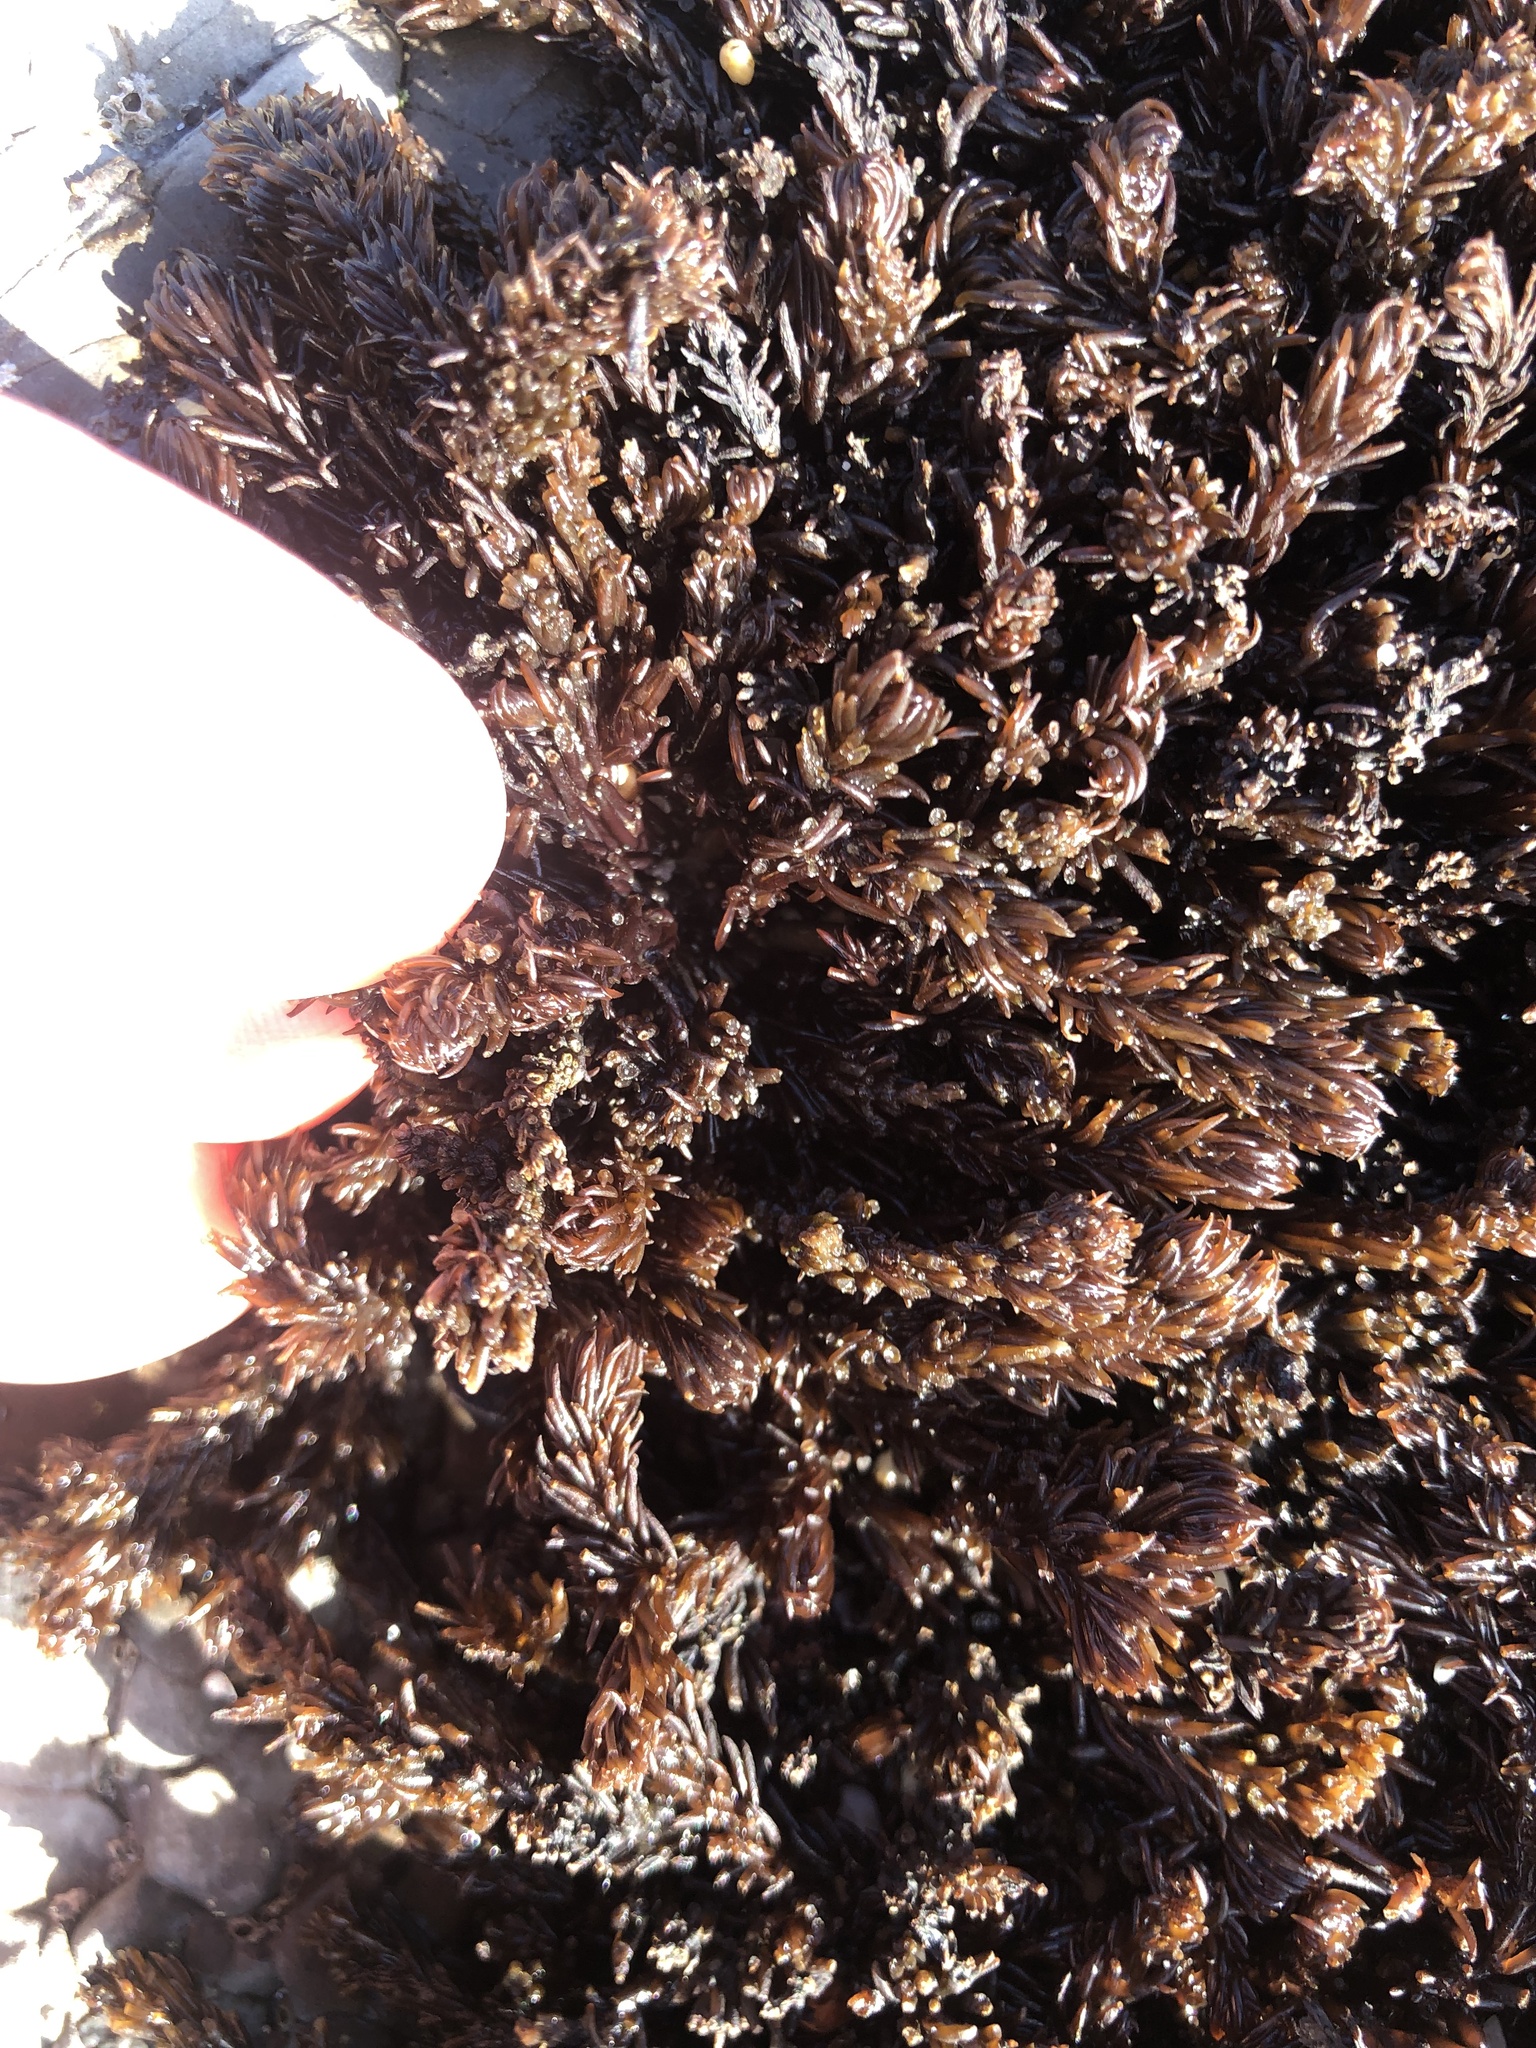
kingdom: Plantae
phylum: Rhodophyta
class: Florideophyceae
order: Ceramiales
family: Rhodomelaceae
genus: Neorhodomela
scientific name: Neorhodomela larix
